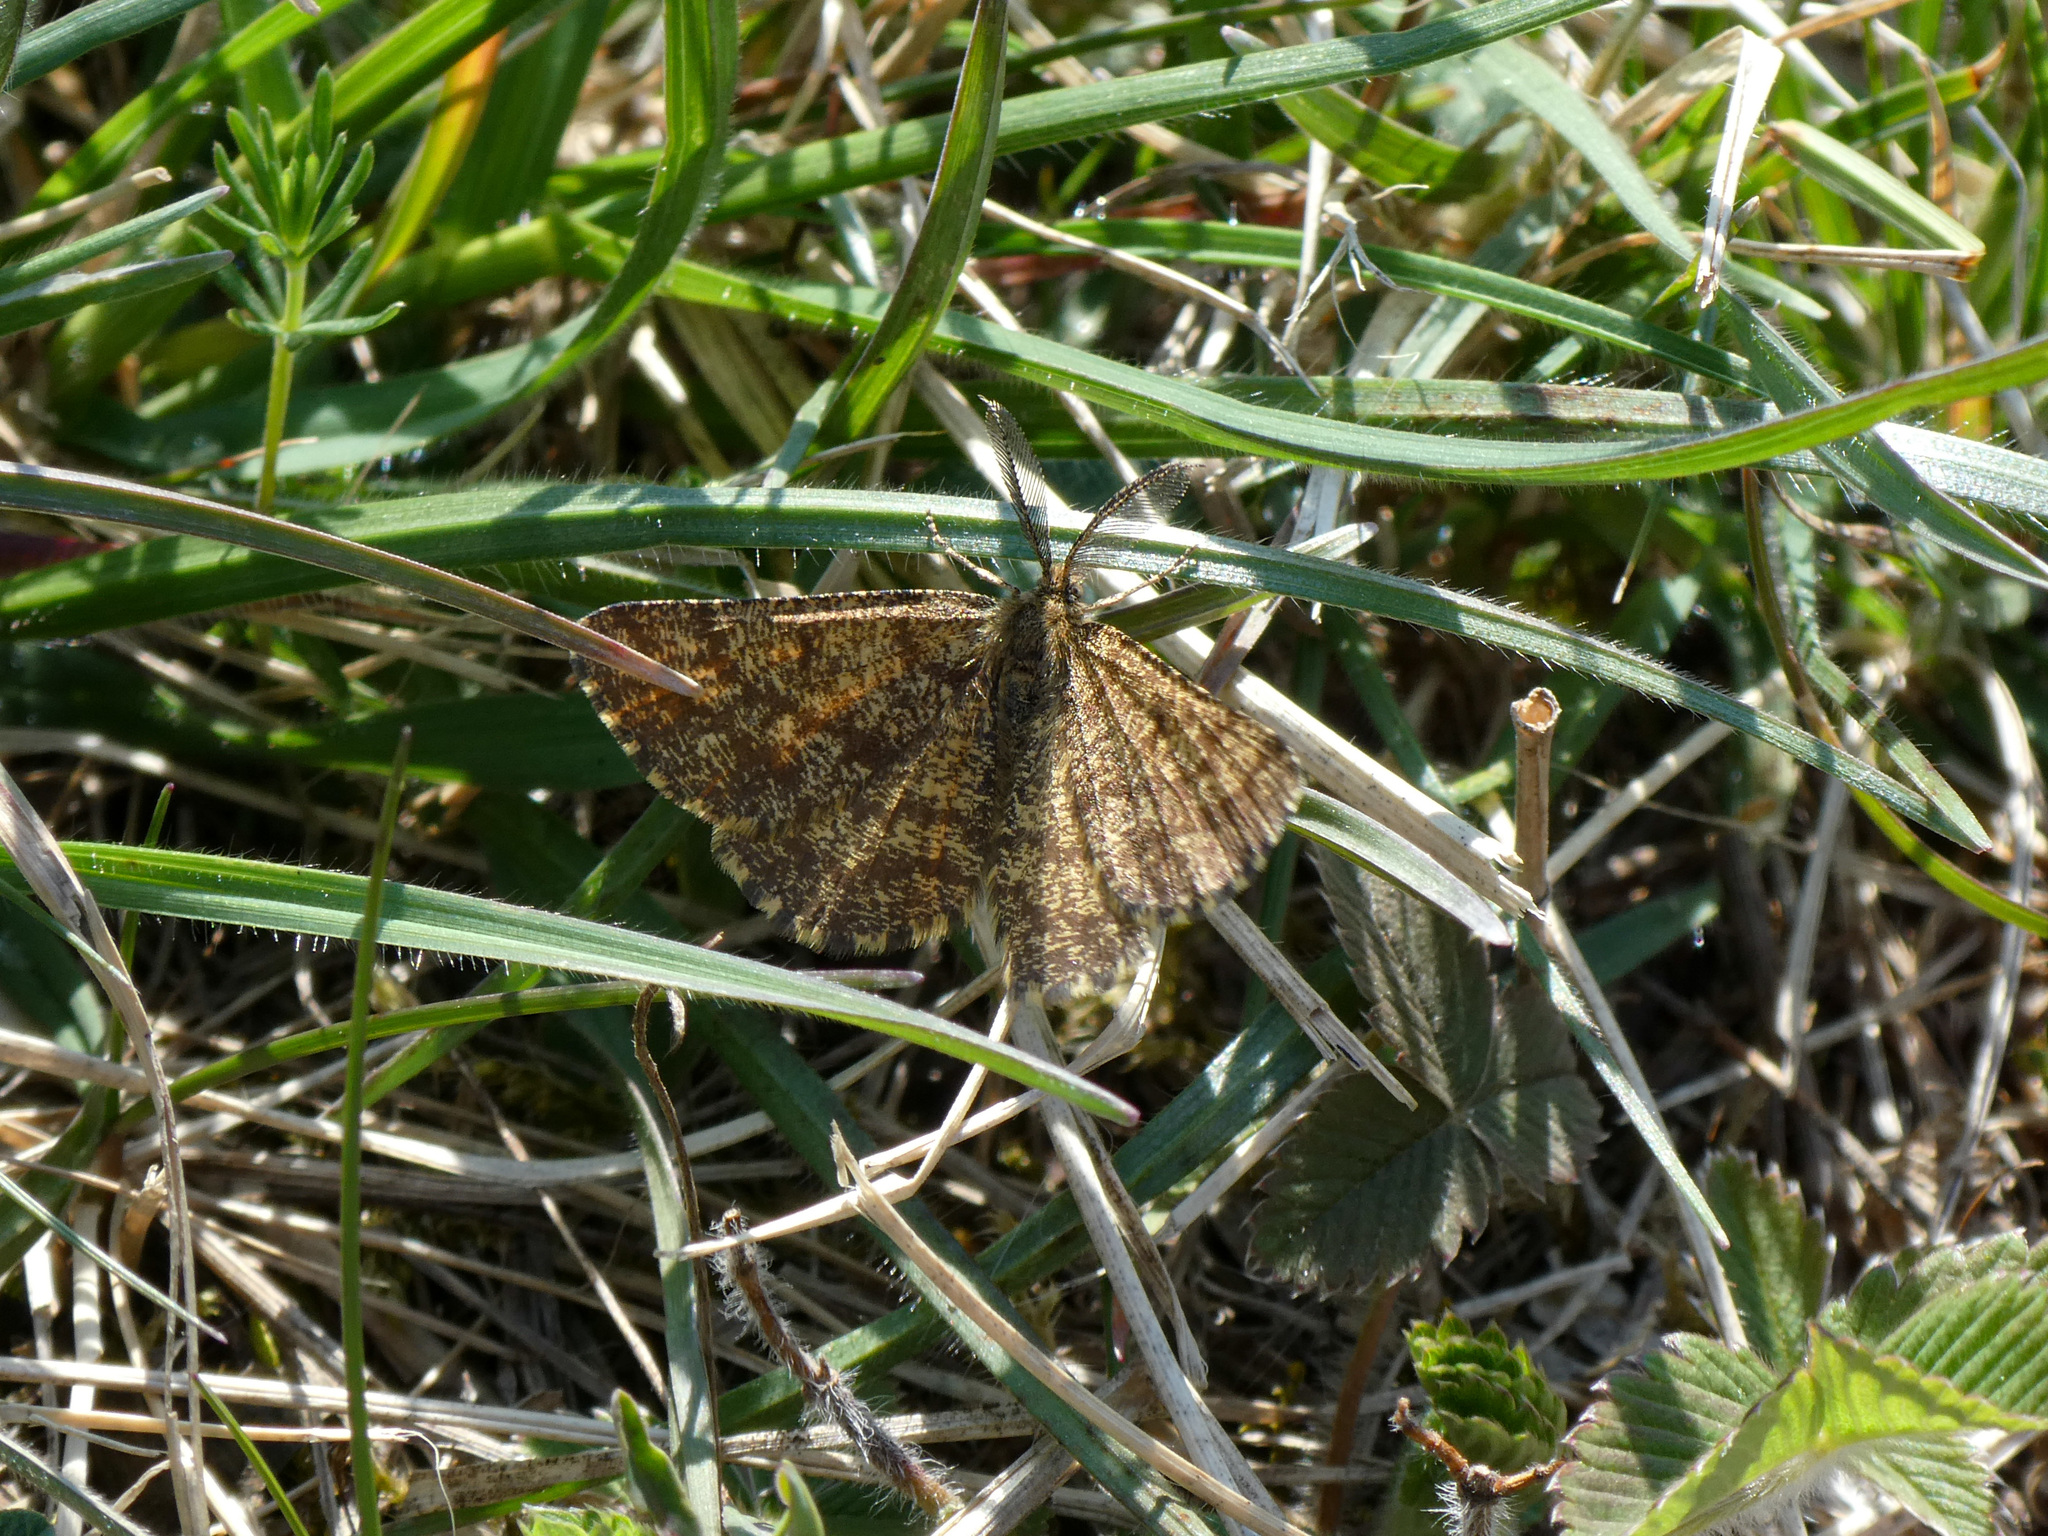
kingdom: Animalia
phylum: Arthropoda
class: Insecta
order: Lepidoptera
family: Geometridae
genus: Ematurga
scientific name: Ematurga atomaria
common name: Common heath
